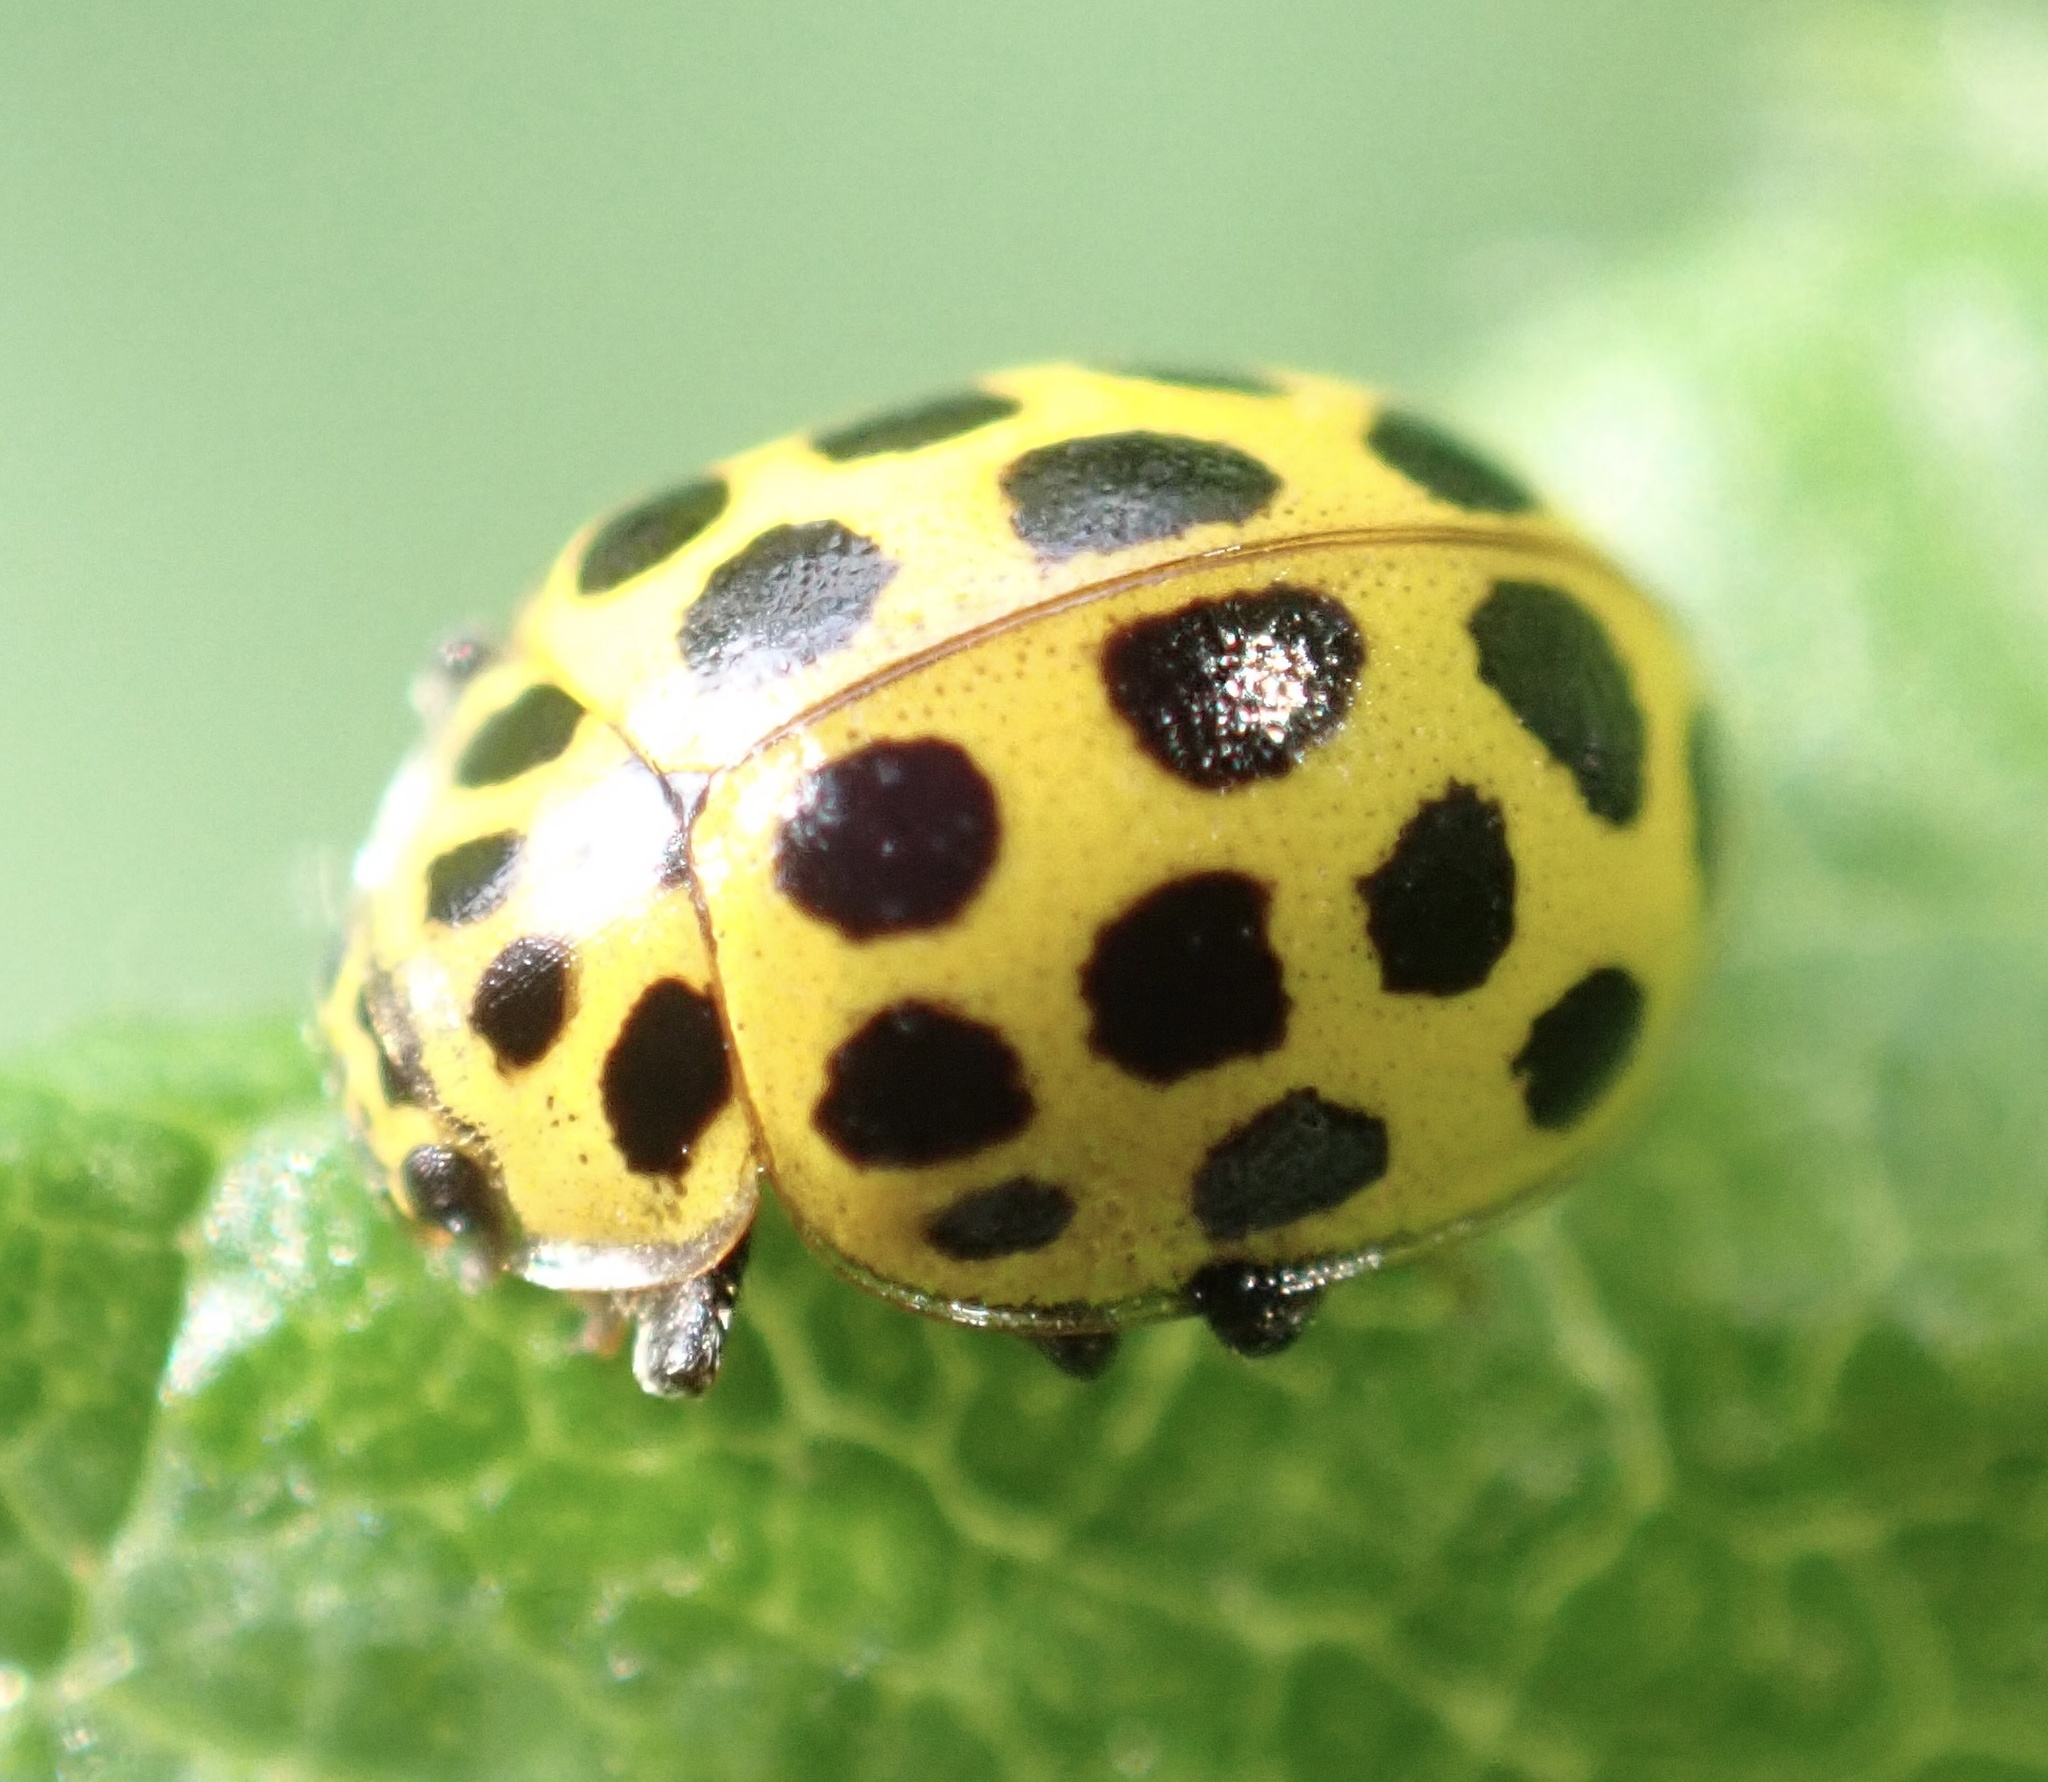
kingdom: Animalia
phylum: Arthropoda
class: Insecta
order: Coleoptera
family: Coccinellidae
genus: Psyllobora
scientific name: Psyllobora vigintiduopunctata
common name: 22-spot ladybird
